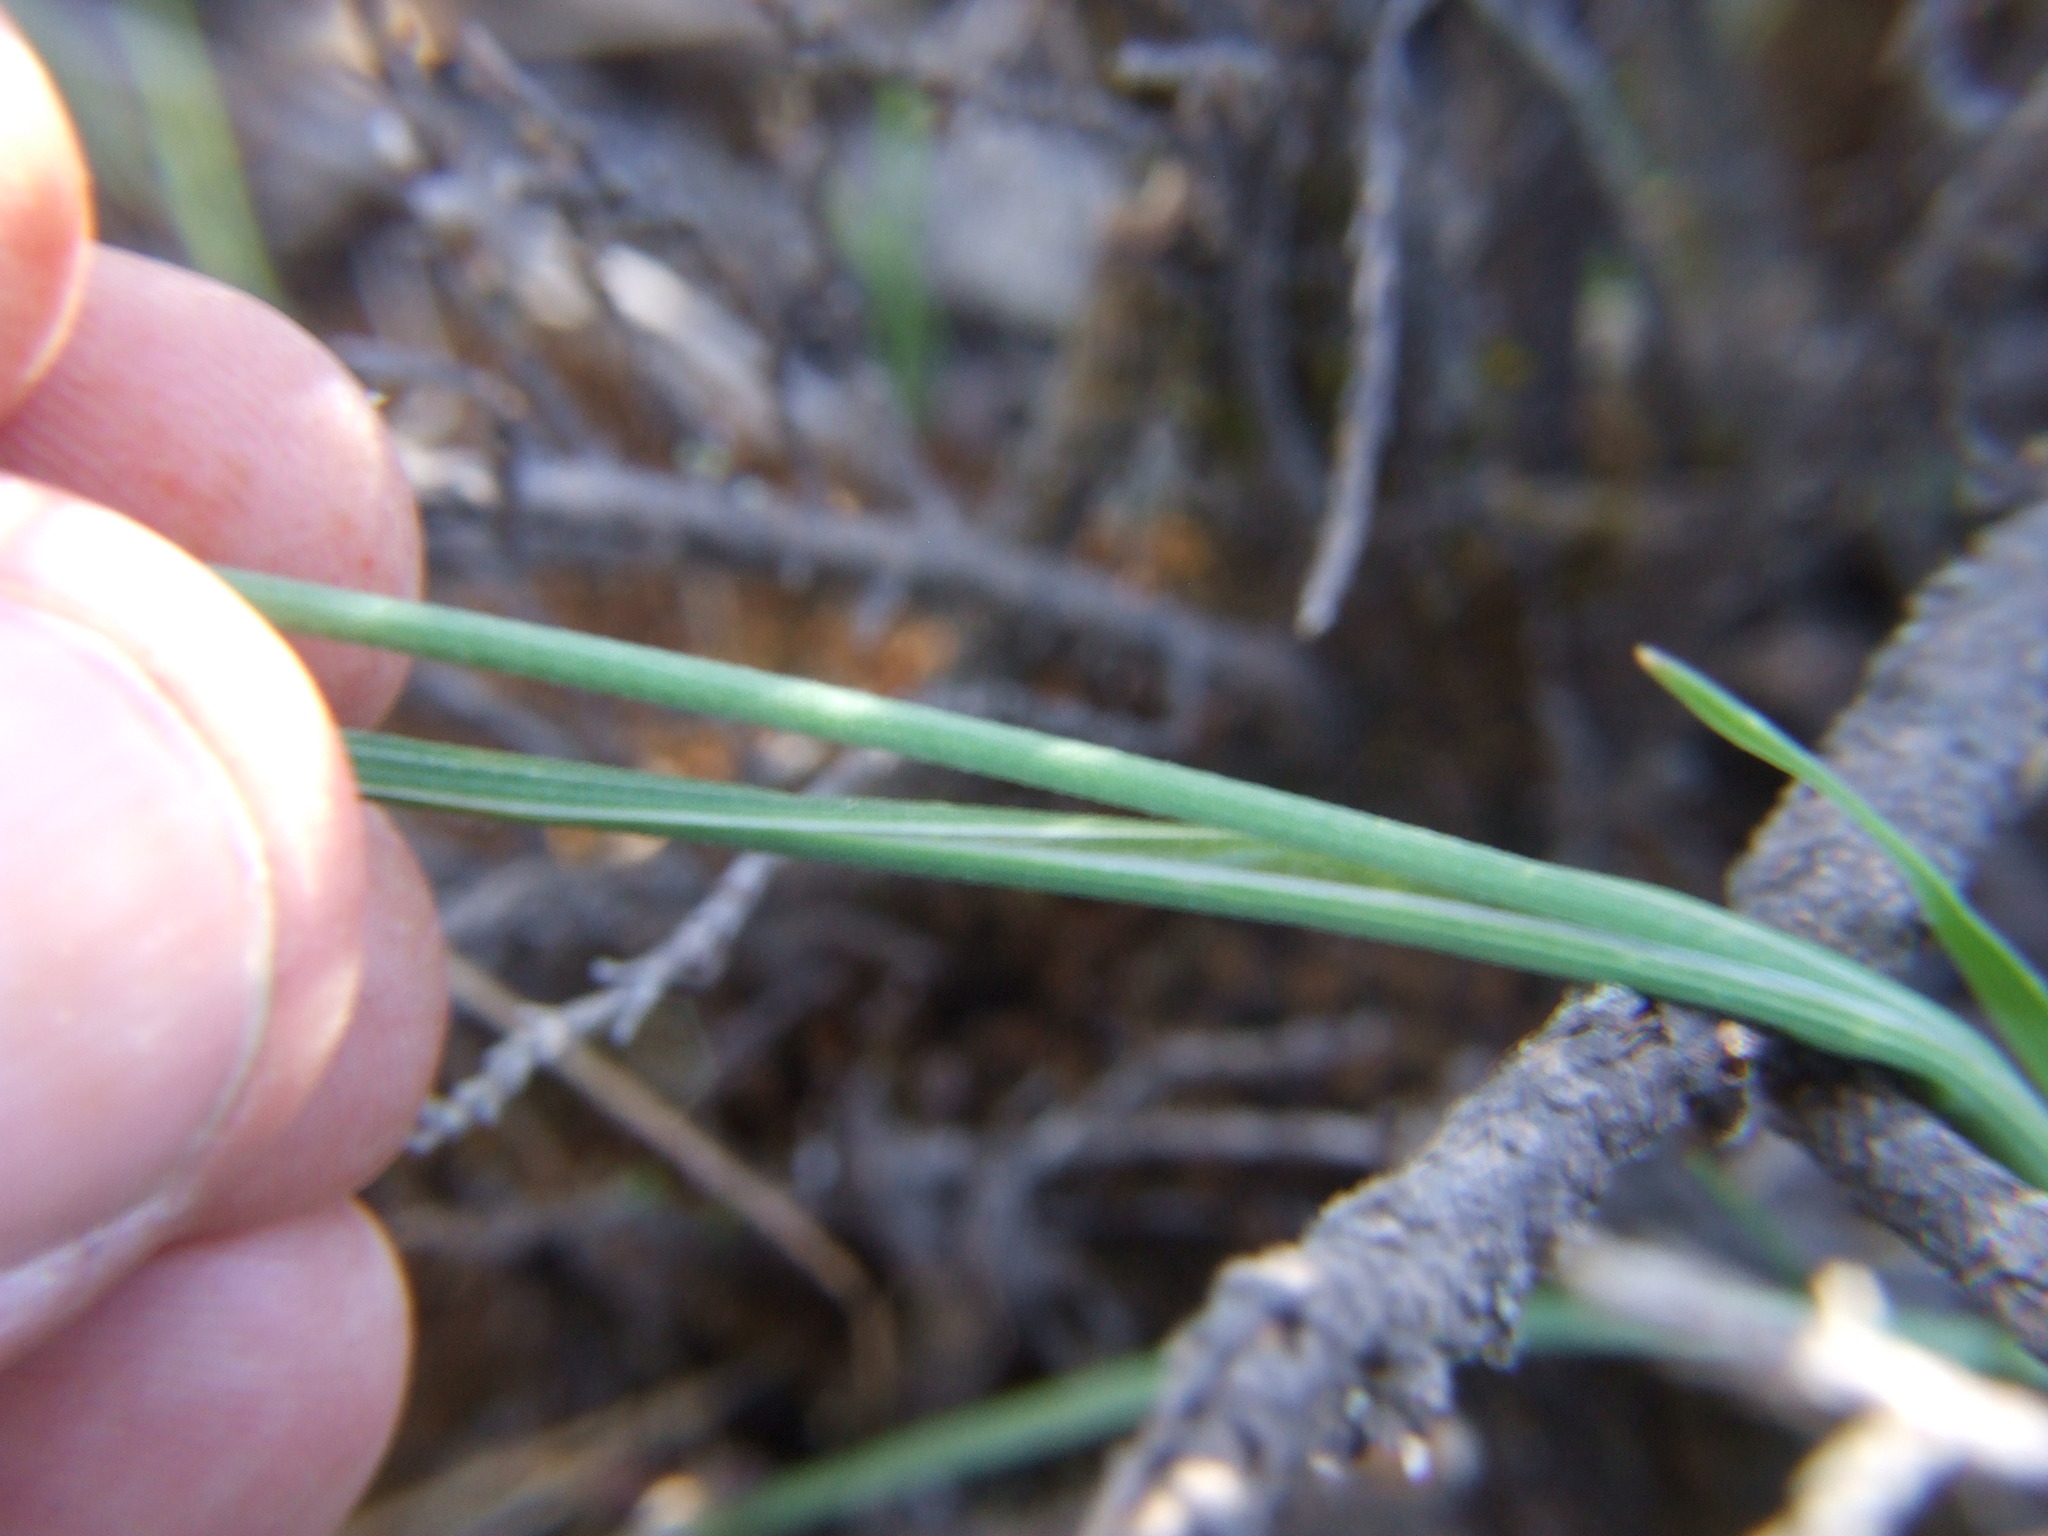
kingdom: Plantae
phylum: Tracheophyta
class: Liliopsida
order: Asparagales
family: Iridaceae
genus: Olsynium
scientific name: Olsynium junceum
